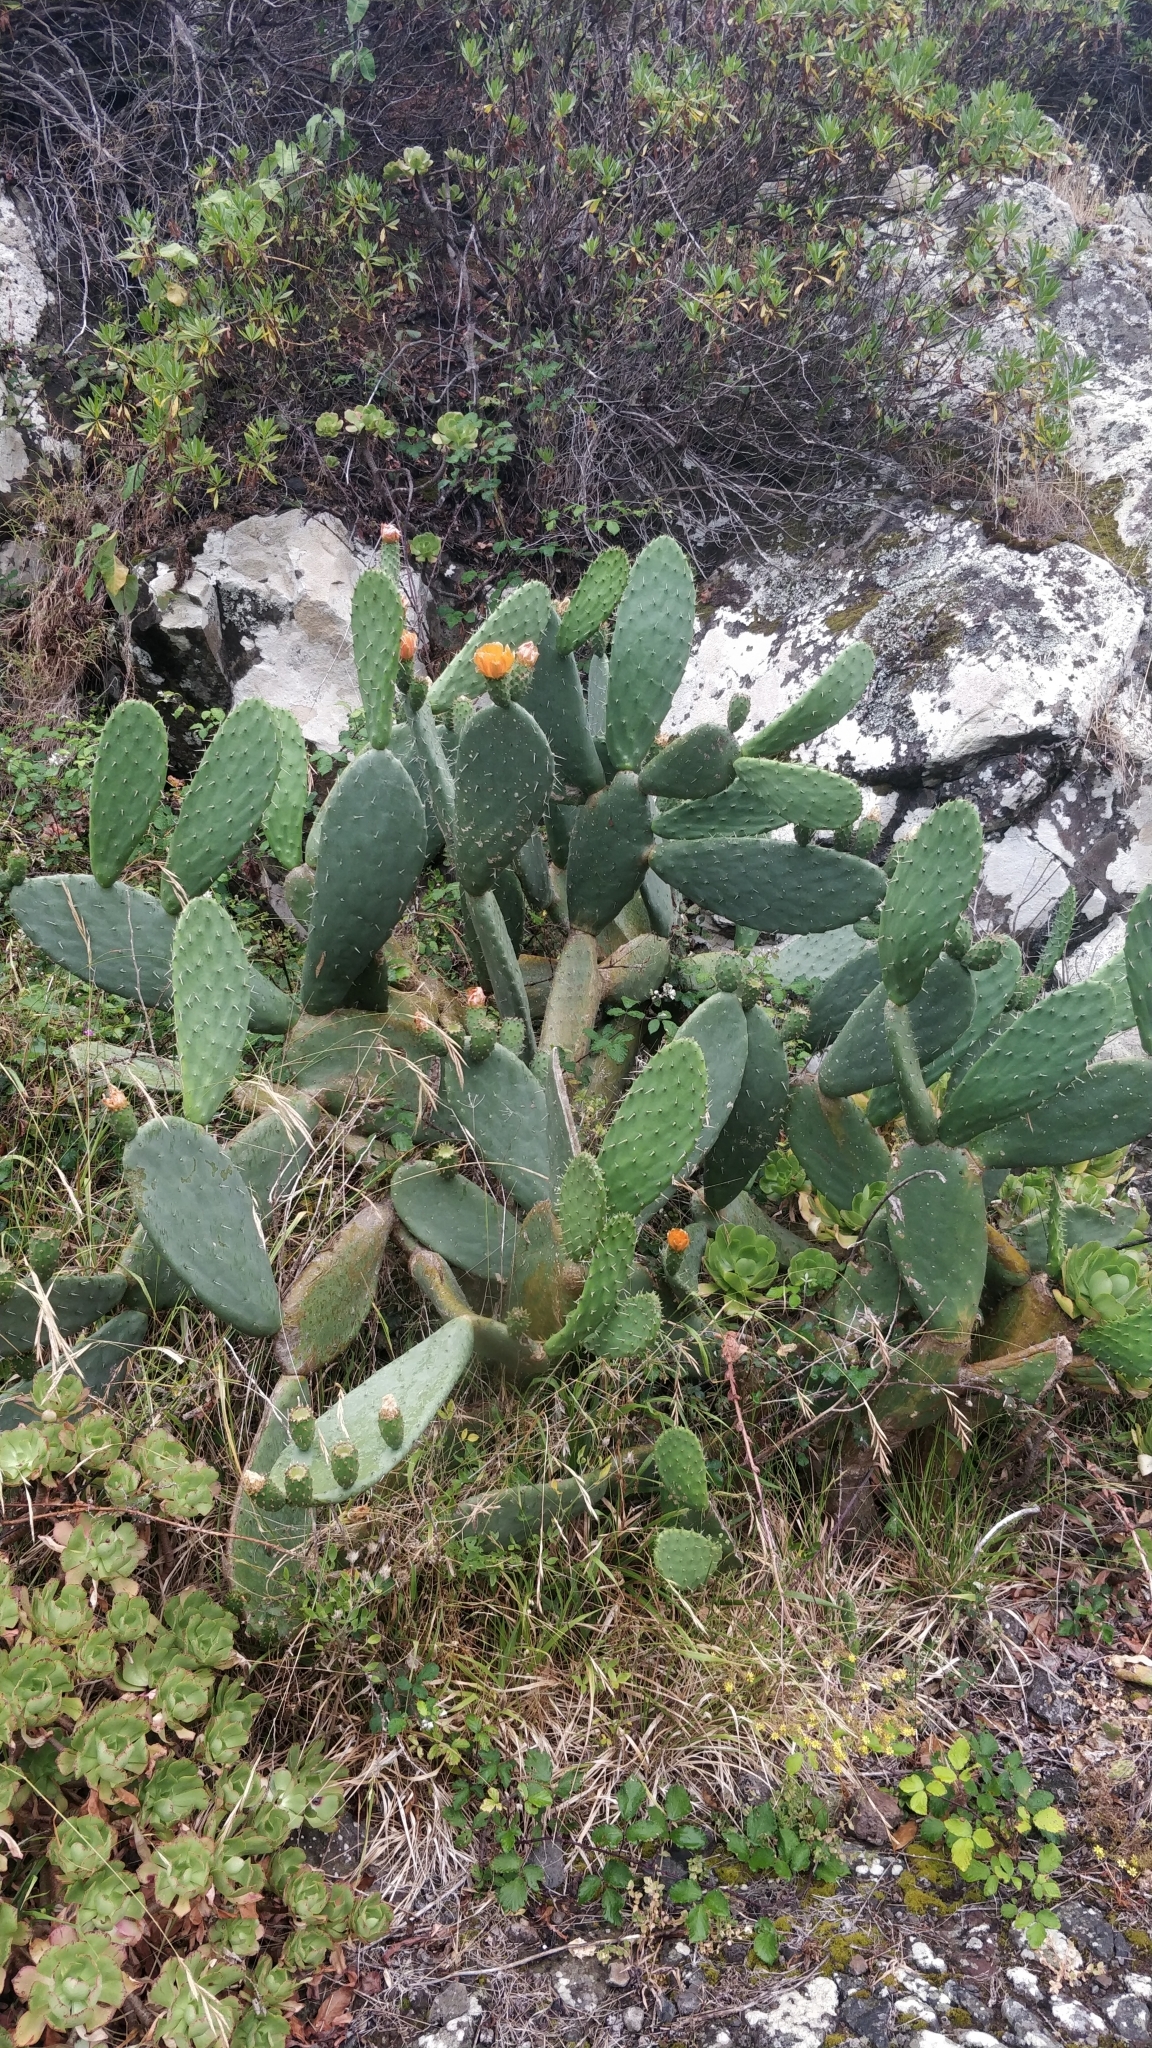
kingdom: Plantae
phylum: Tracheophyta
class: Magnoliopsida
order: Caryophyllales
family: Cactaceae
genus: Opuntia
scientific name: Opuntia ficus-indica
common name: Barbary fig
